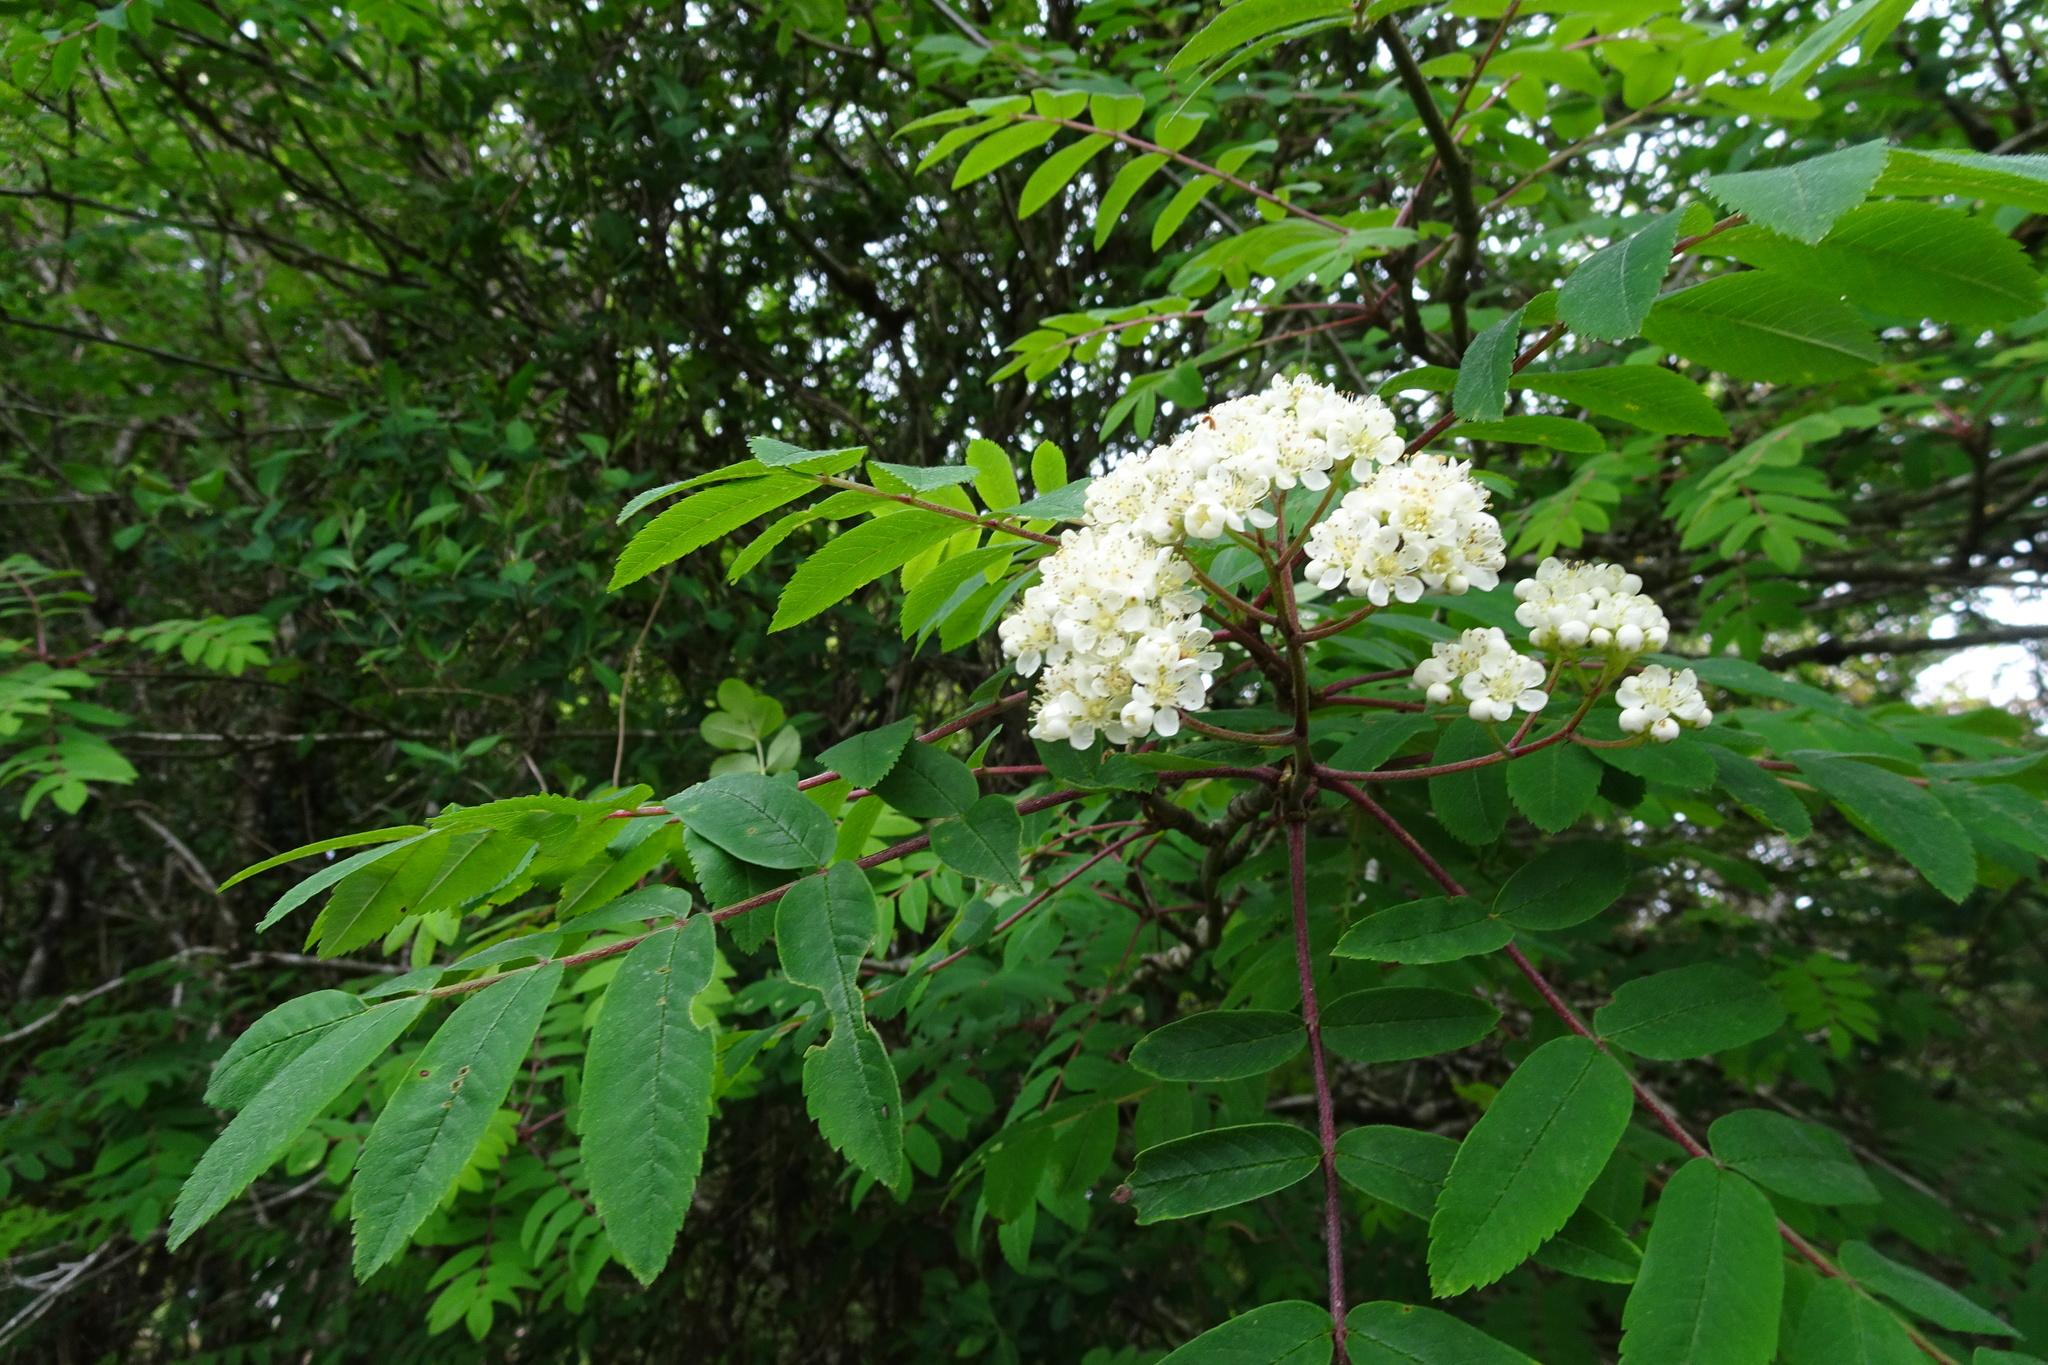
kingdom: Plantae
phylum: Tracheophyta
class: Magnoliopsida
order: Rosales
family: Rosaceae
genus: Sorbus
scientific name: Sorbus aucuparia
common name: Rowan
